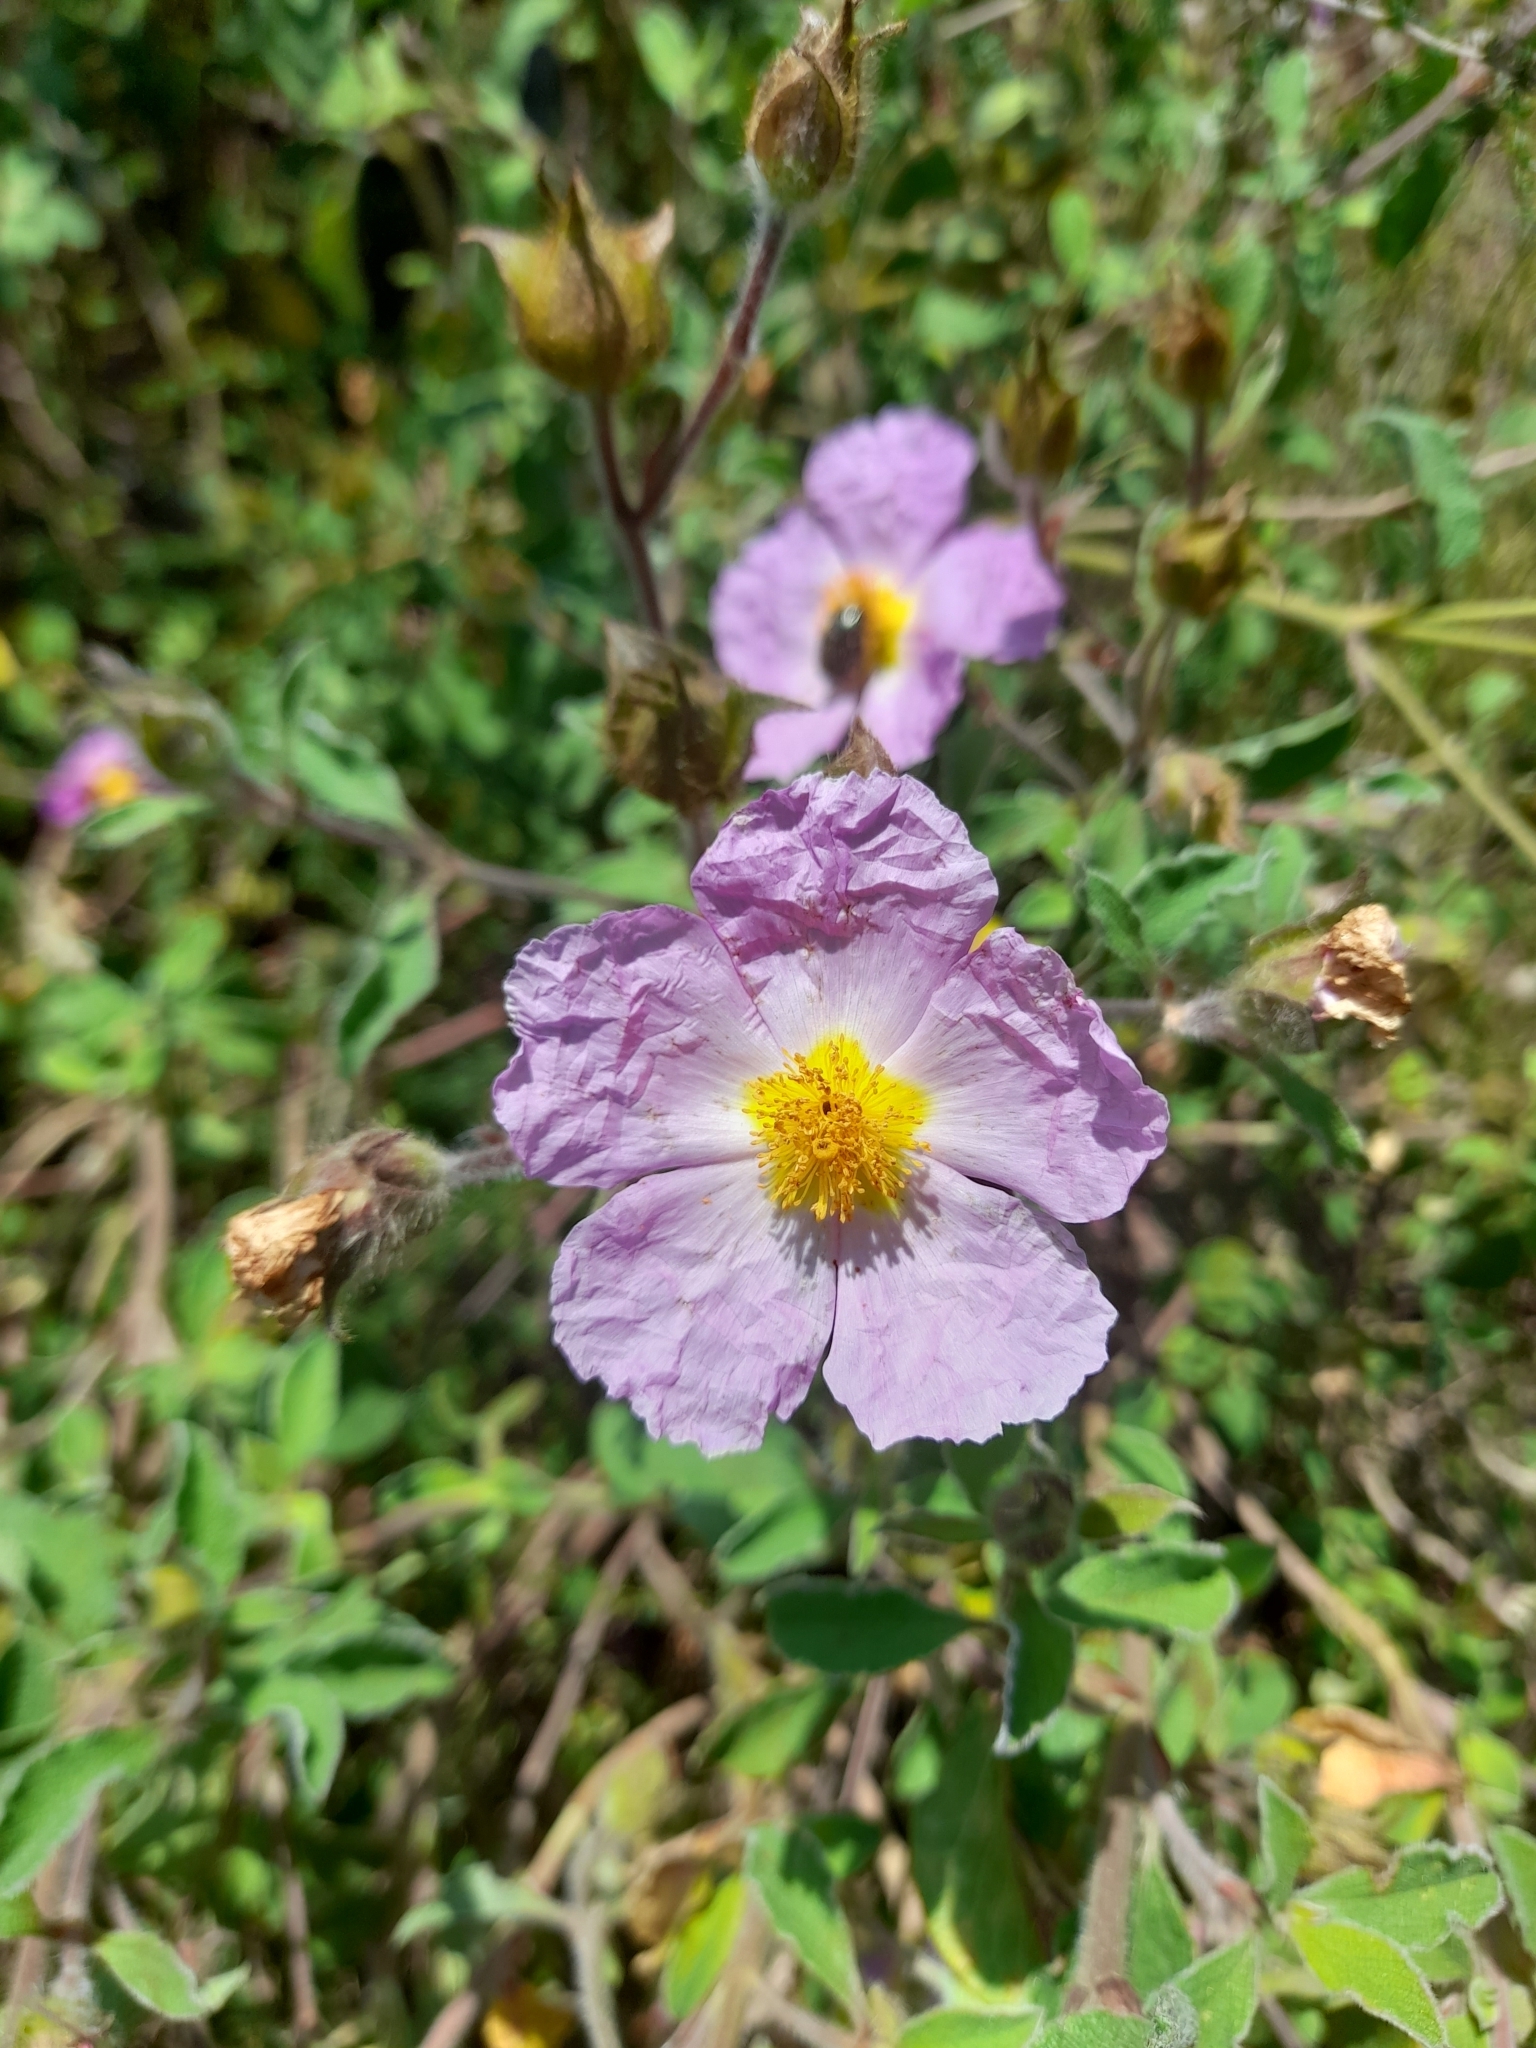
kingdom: Plantae
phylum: Tracheophyta
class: Magnoliopsida
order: Malvales
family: Cistaceae
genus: Cistus
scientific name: Cistus creticus
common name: Cretan rockrose
